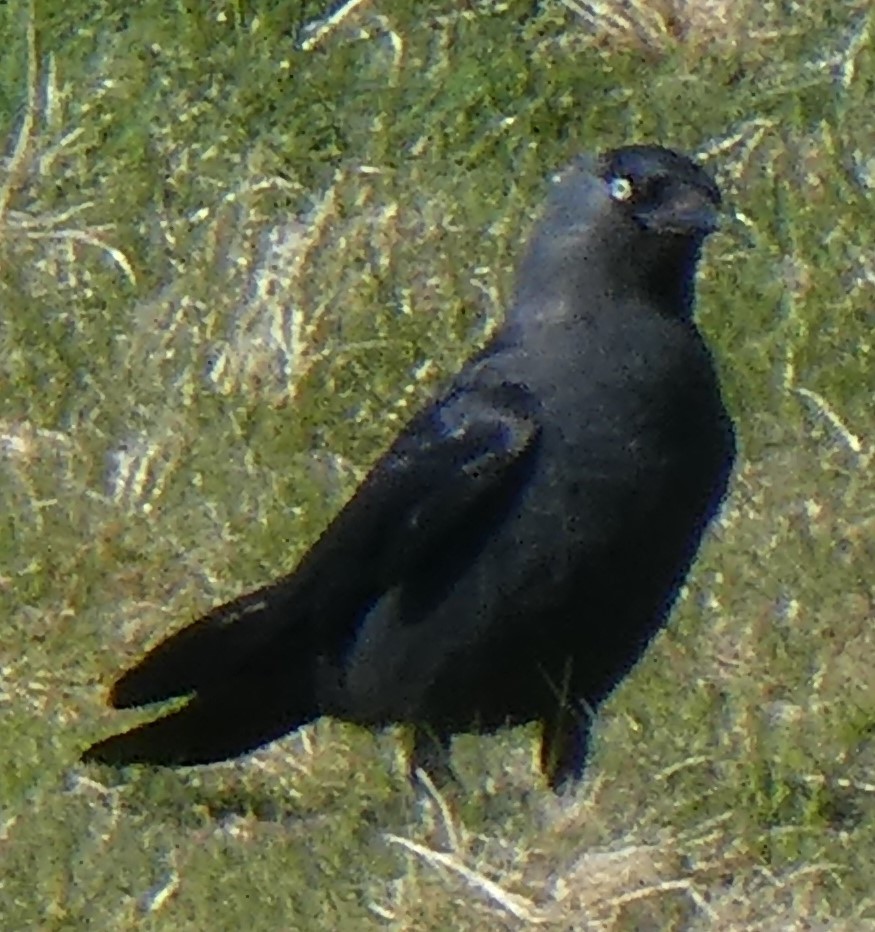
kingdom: Animalia
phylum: Chordata
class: Aves
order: Passeriformes
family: Corvidae
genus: Coloeus
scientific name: Coloeus monedula
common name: Western jackdaw
